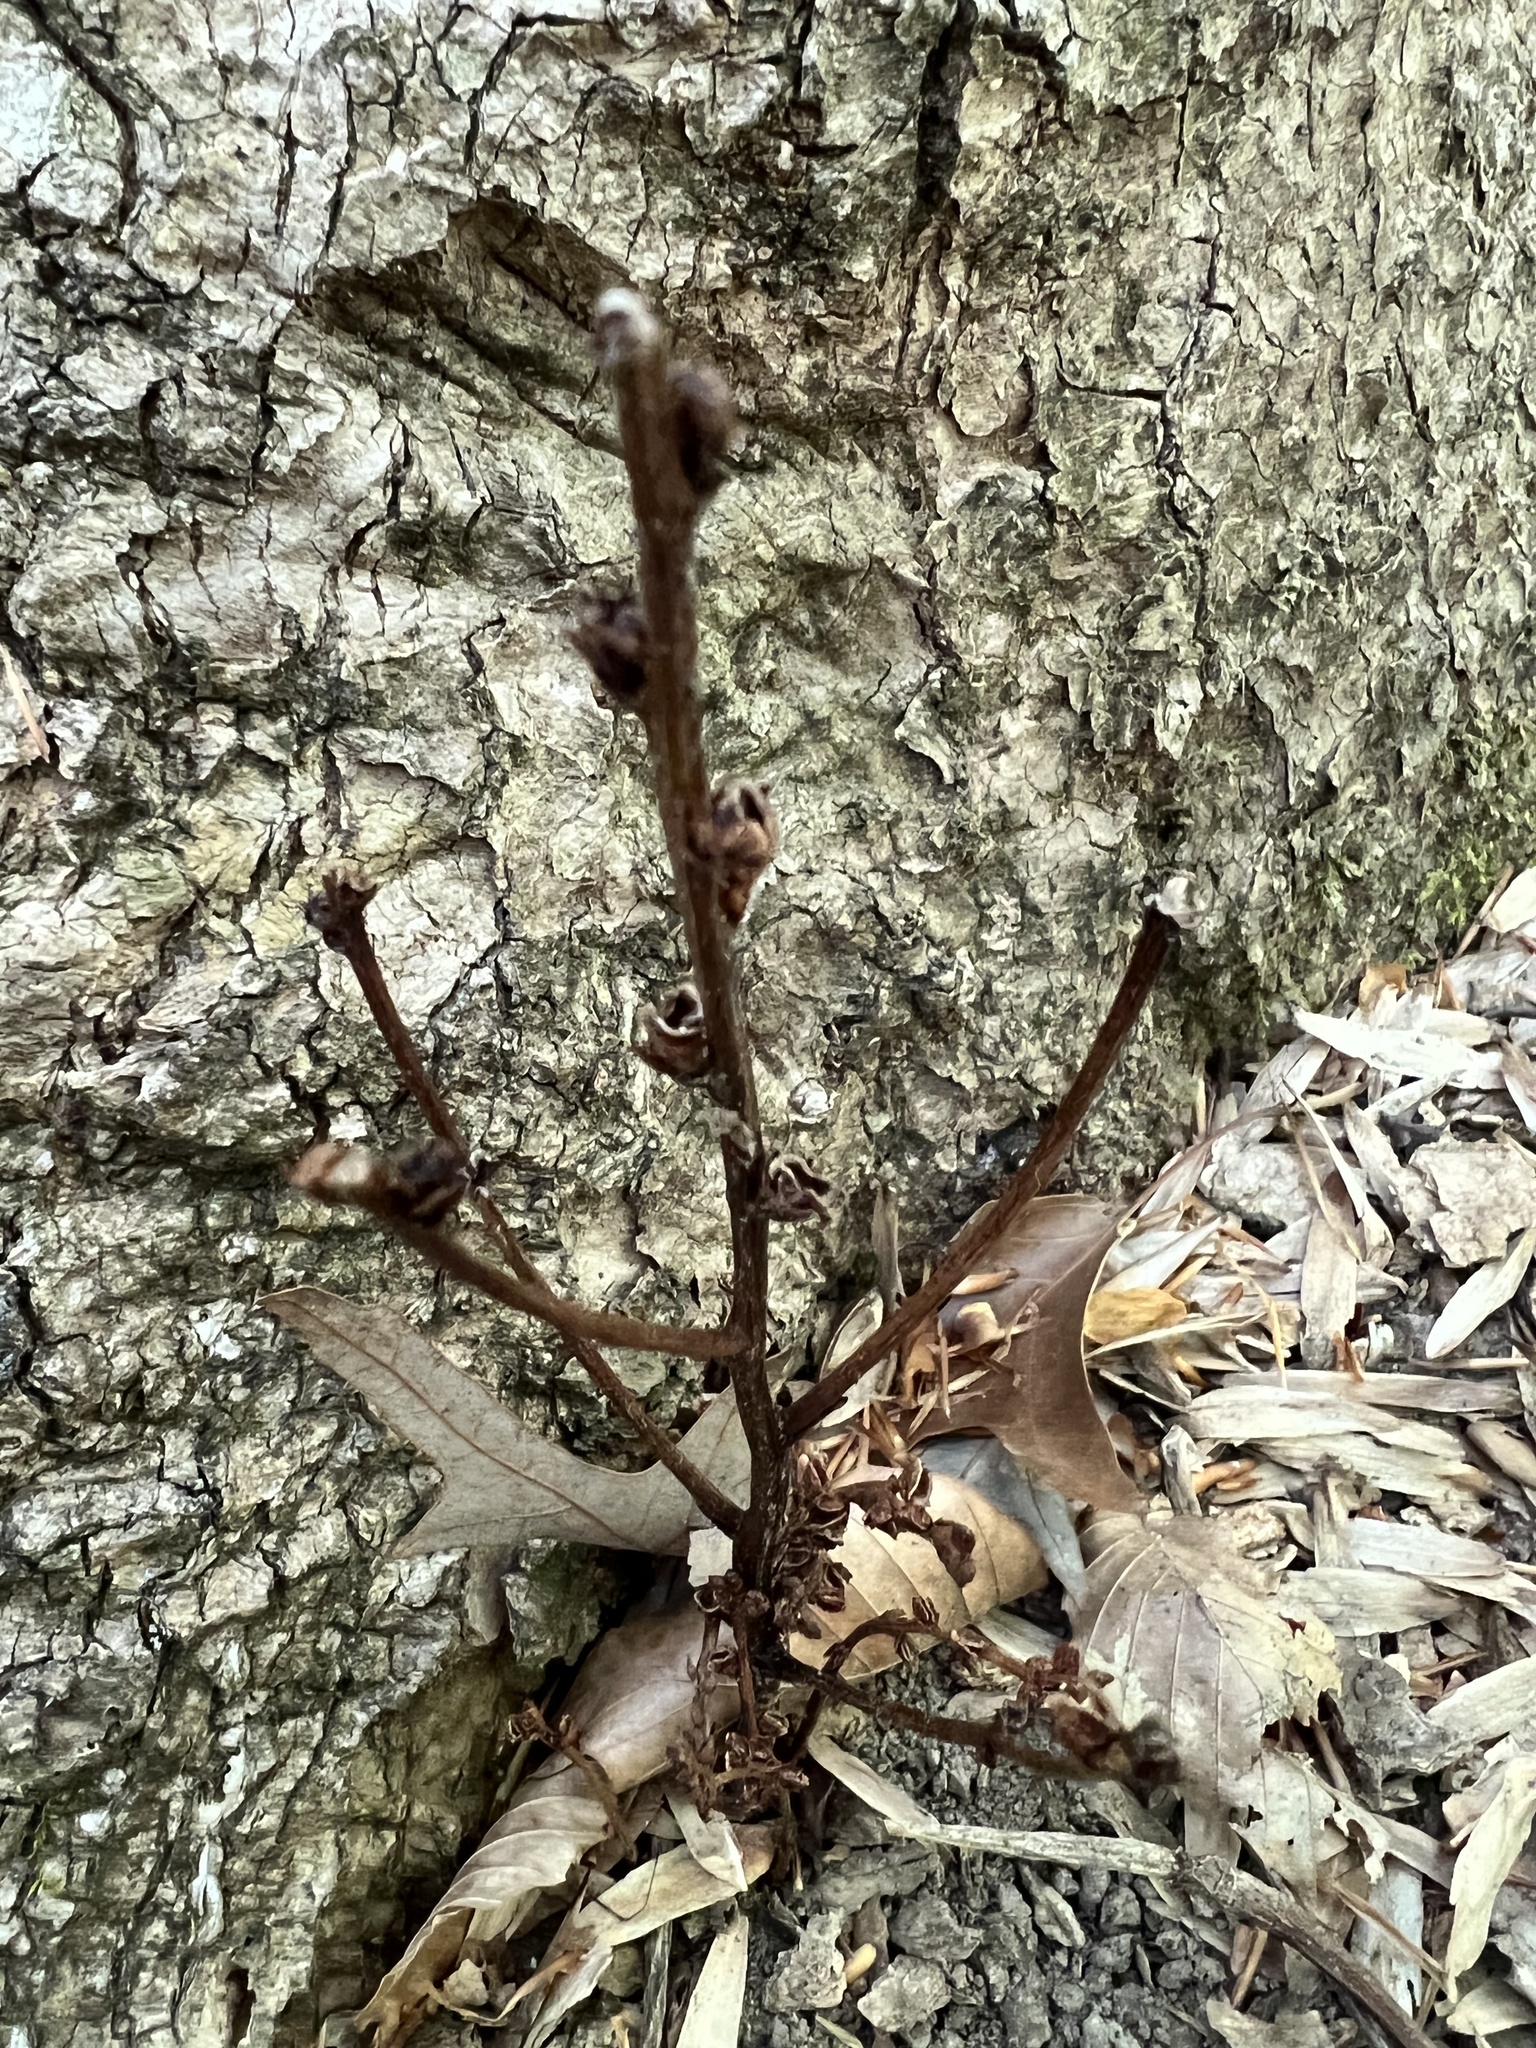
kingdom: Plantae
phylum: Tracheophyta
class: Magnoliopsida
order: Lamiales
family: Orobanchaceae
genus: Epifagus
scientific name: Epifagus virginiana
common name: Beechdrops
